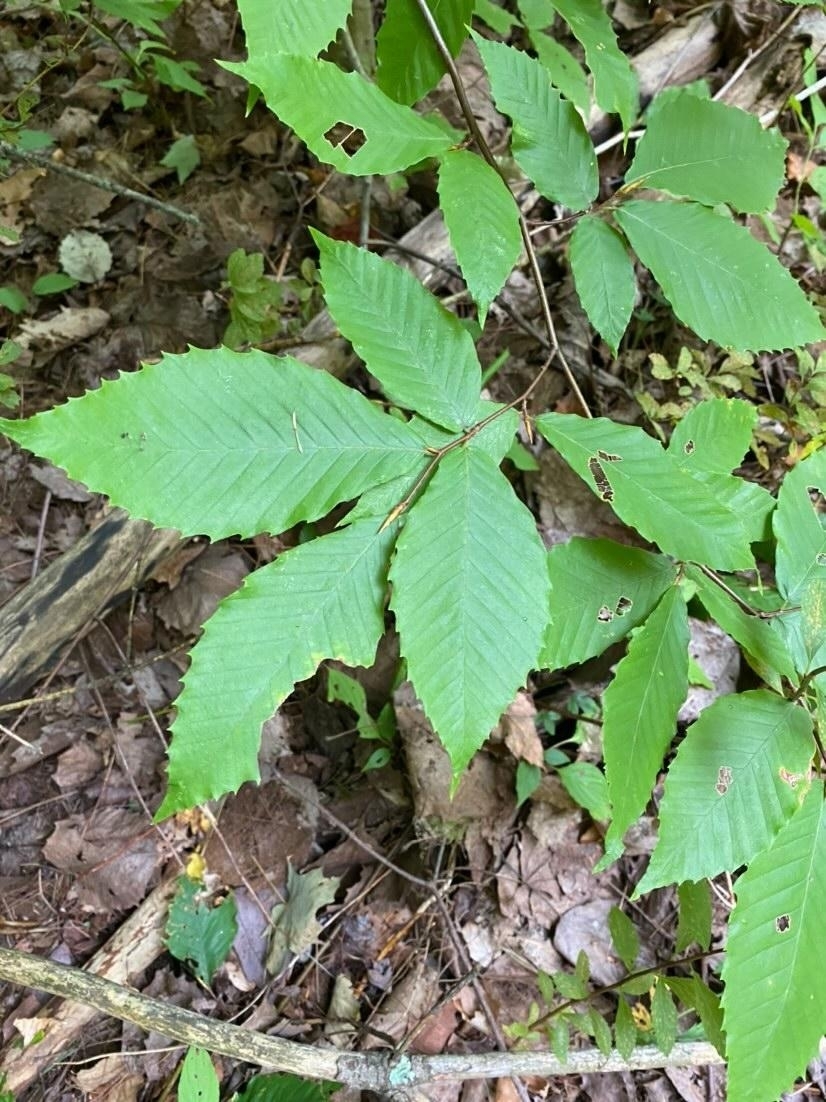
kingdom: Plantae
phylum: Tracheophyta
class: Magnoliopsida
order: Fagales
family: Fagaceae
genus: Fagus
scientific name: Fagus grandifolia
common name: American beech
